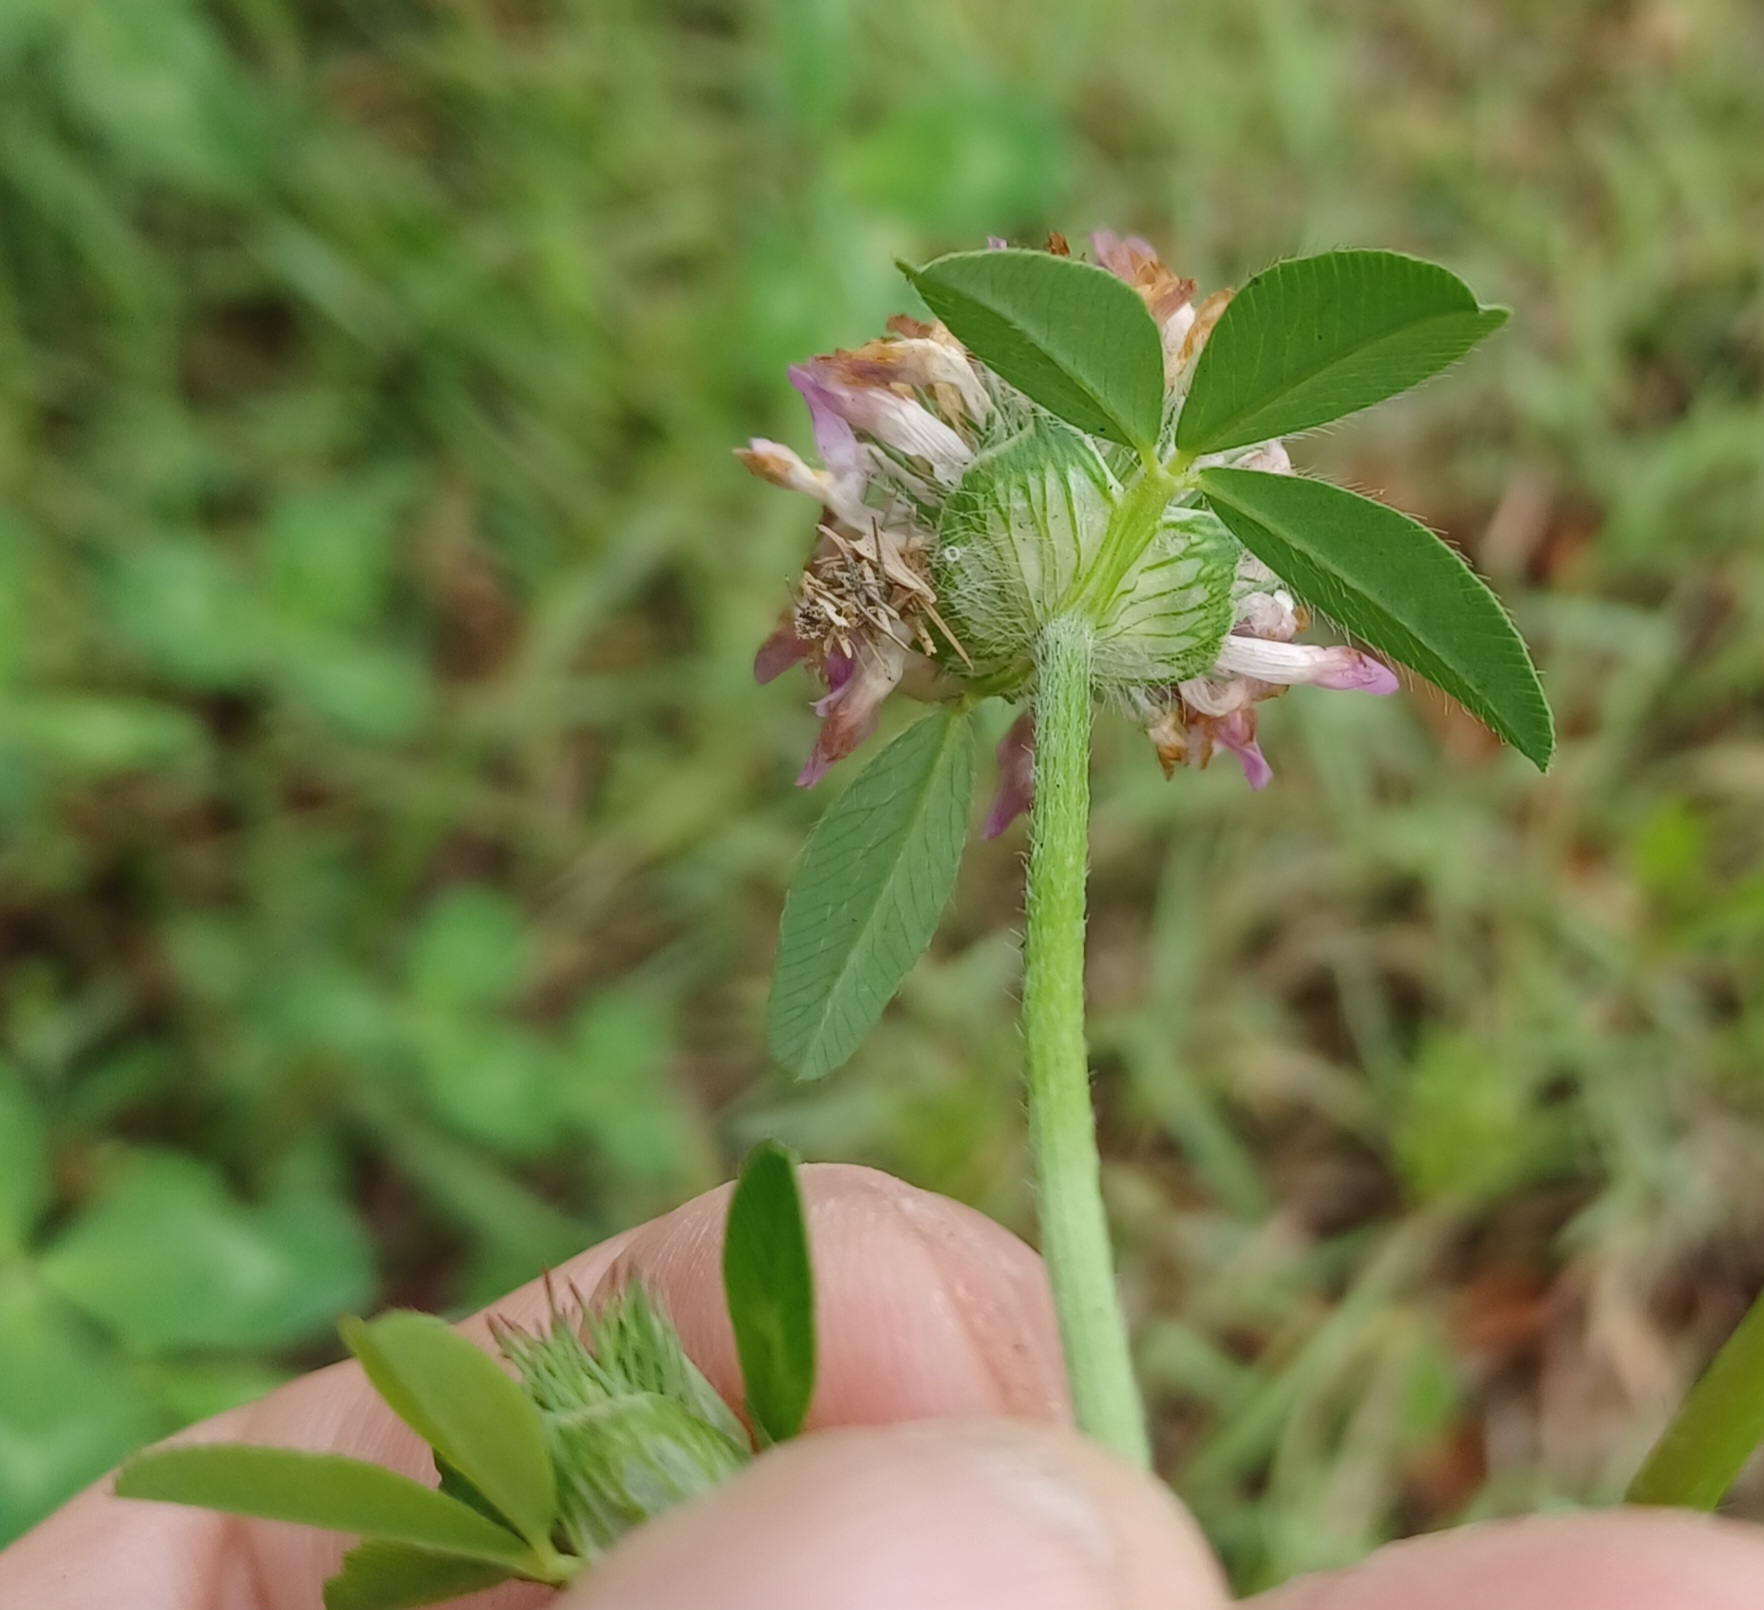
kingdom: Plantae
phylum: Tracheophyta
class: Magnoliopsida
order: Fabales
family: Fabaceae
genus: Trifolium
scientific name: Trifolium pratense
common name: Red clover
